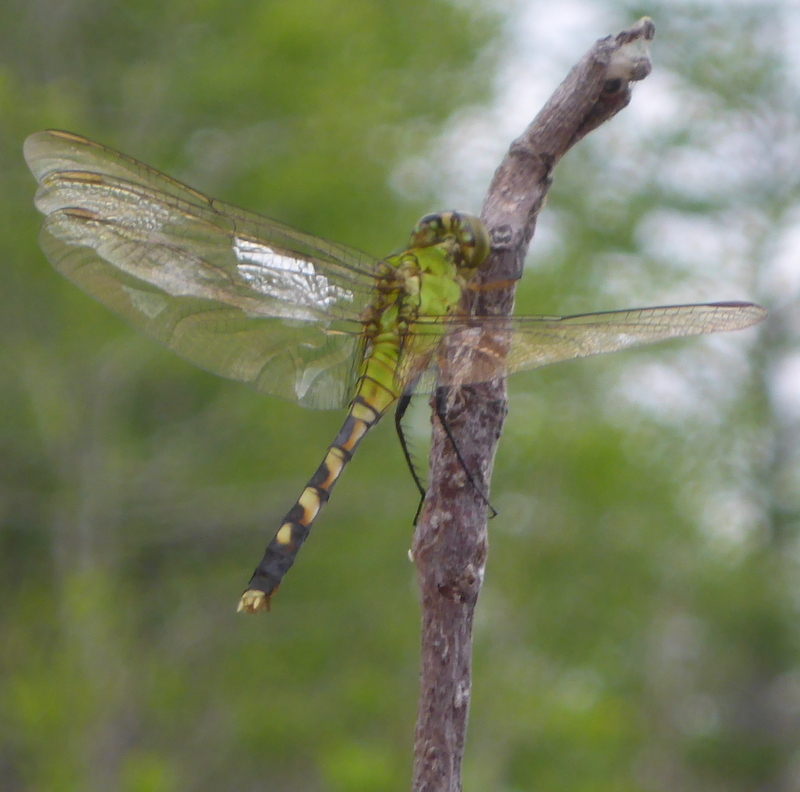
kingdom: Animalia
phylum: Arthropoda
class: Insecta
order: Odonata
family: Libellulidae
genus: Erythemis
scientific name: Erythemis simplicicollis
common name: Eastern pondhawk
